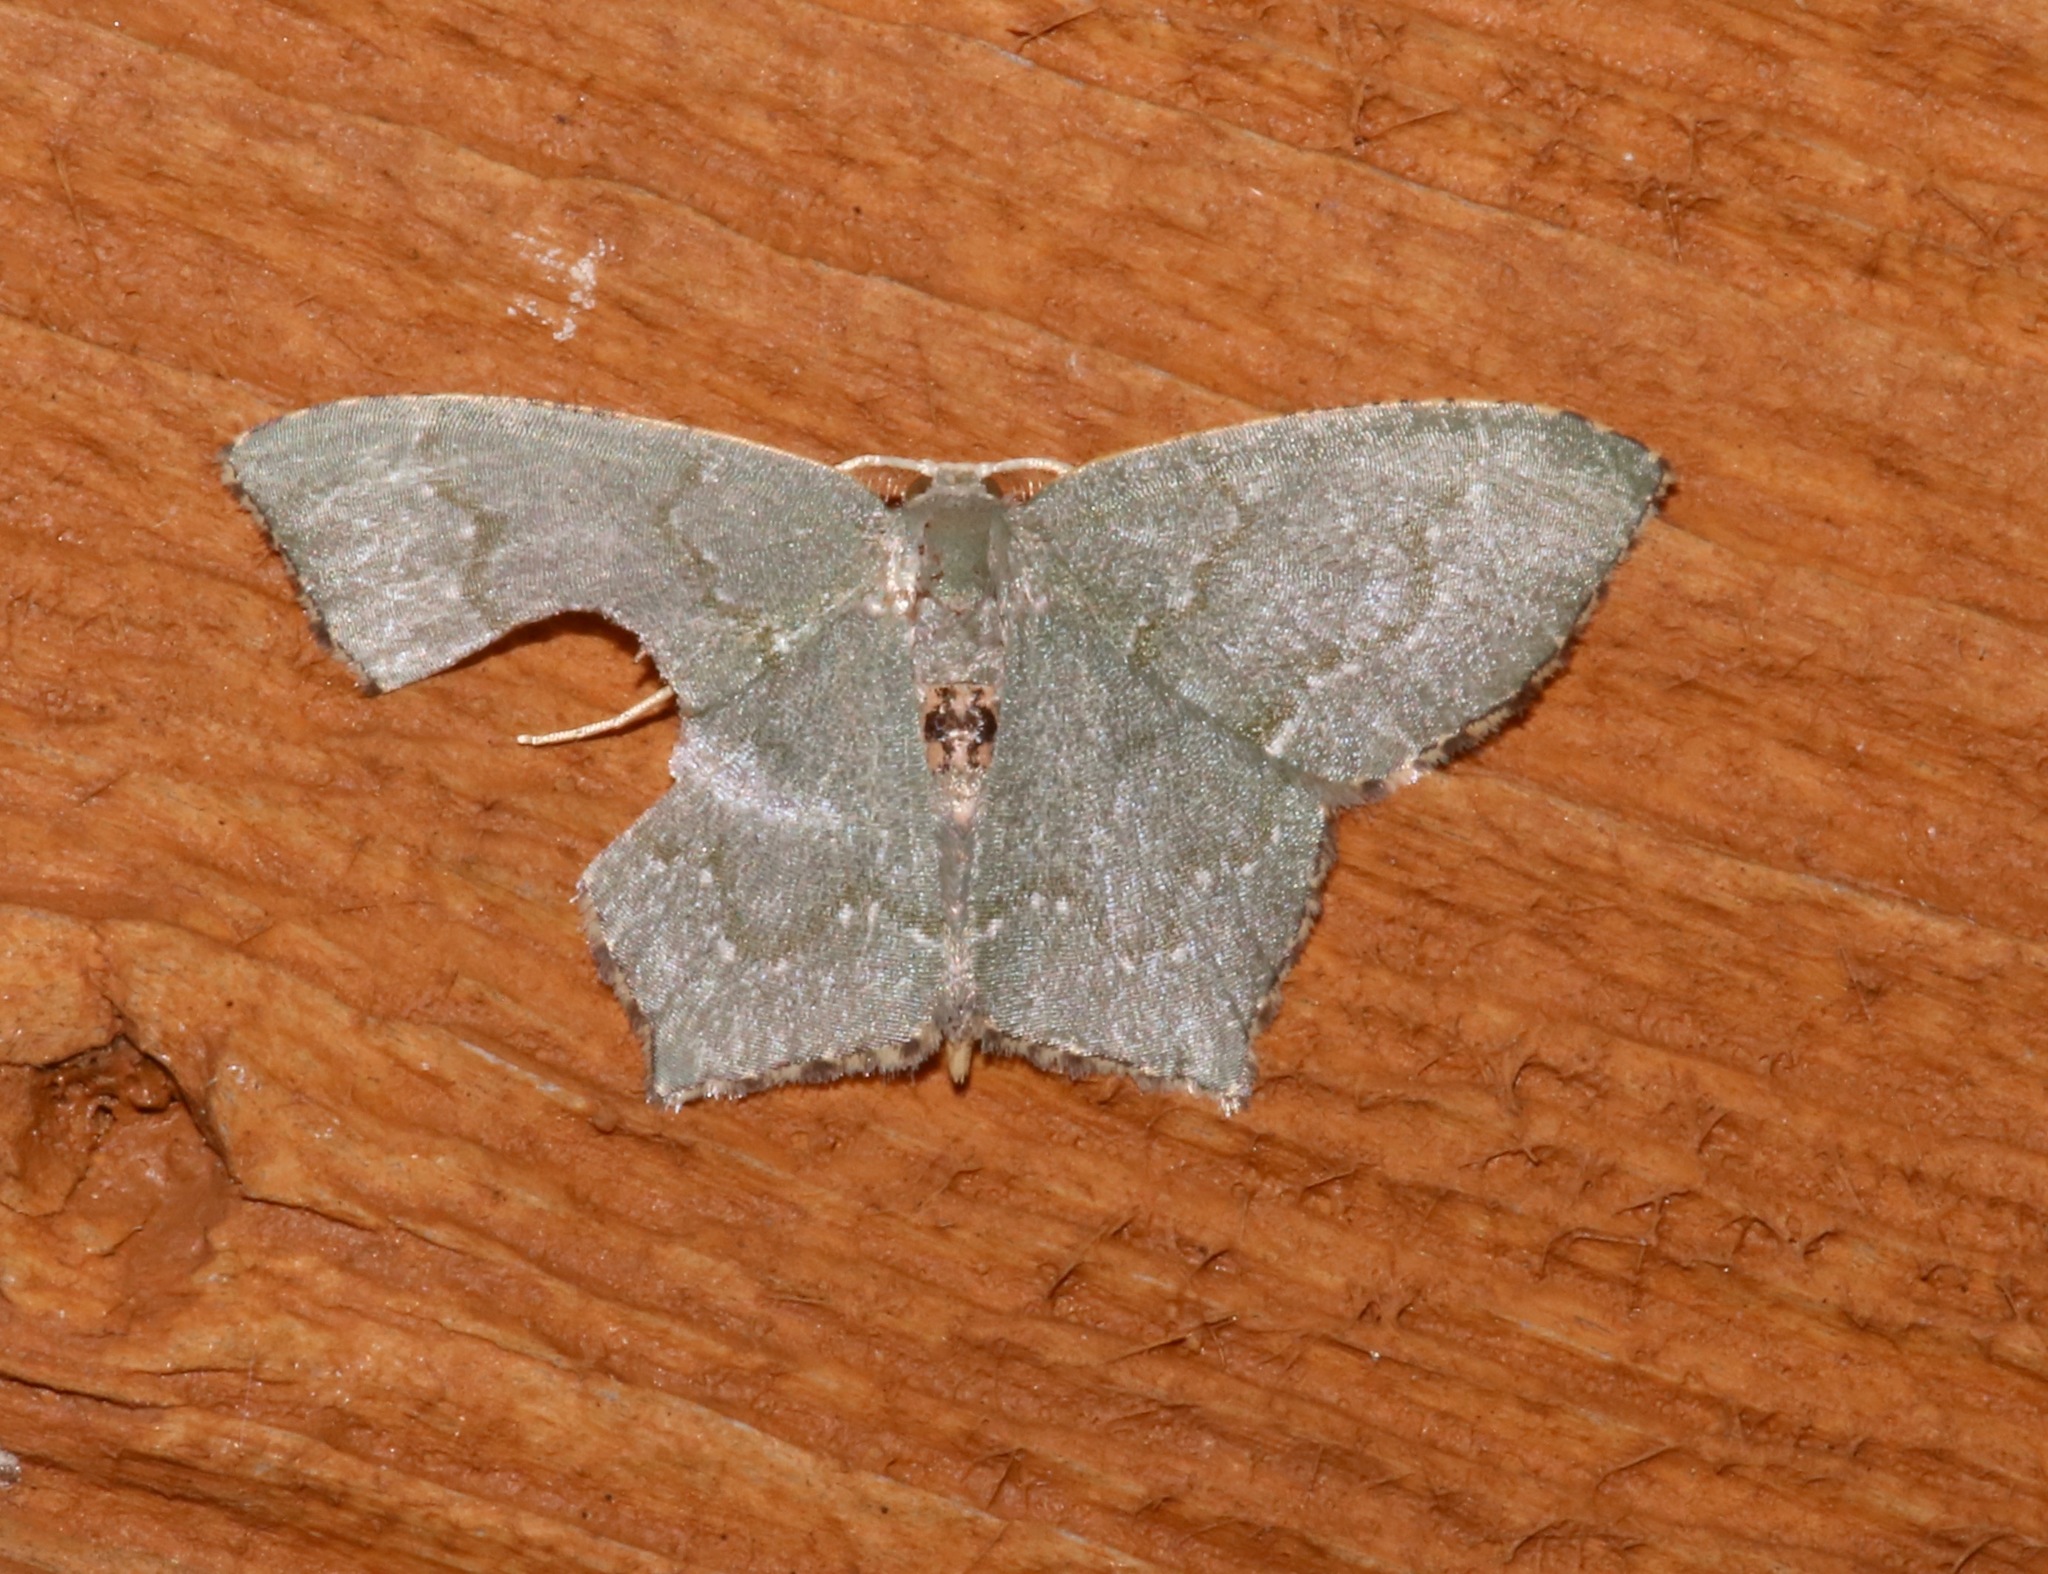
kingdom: Animalia
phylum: Arthropoda
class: Insecta
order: Lepidoptera
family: Geometridae
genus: Chloropteryx
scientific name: Chloropteryx tepperaria
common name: Angle winged emerald moth
